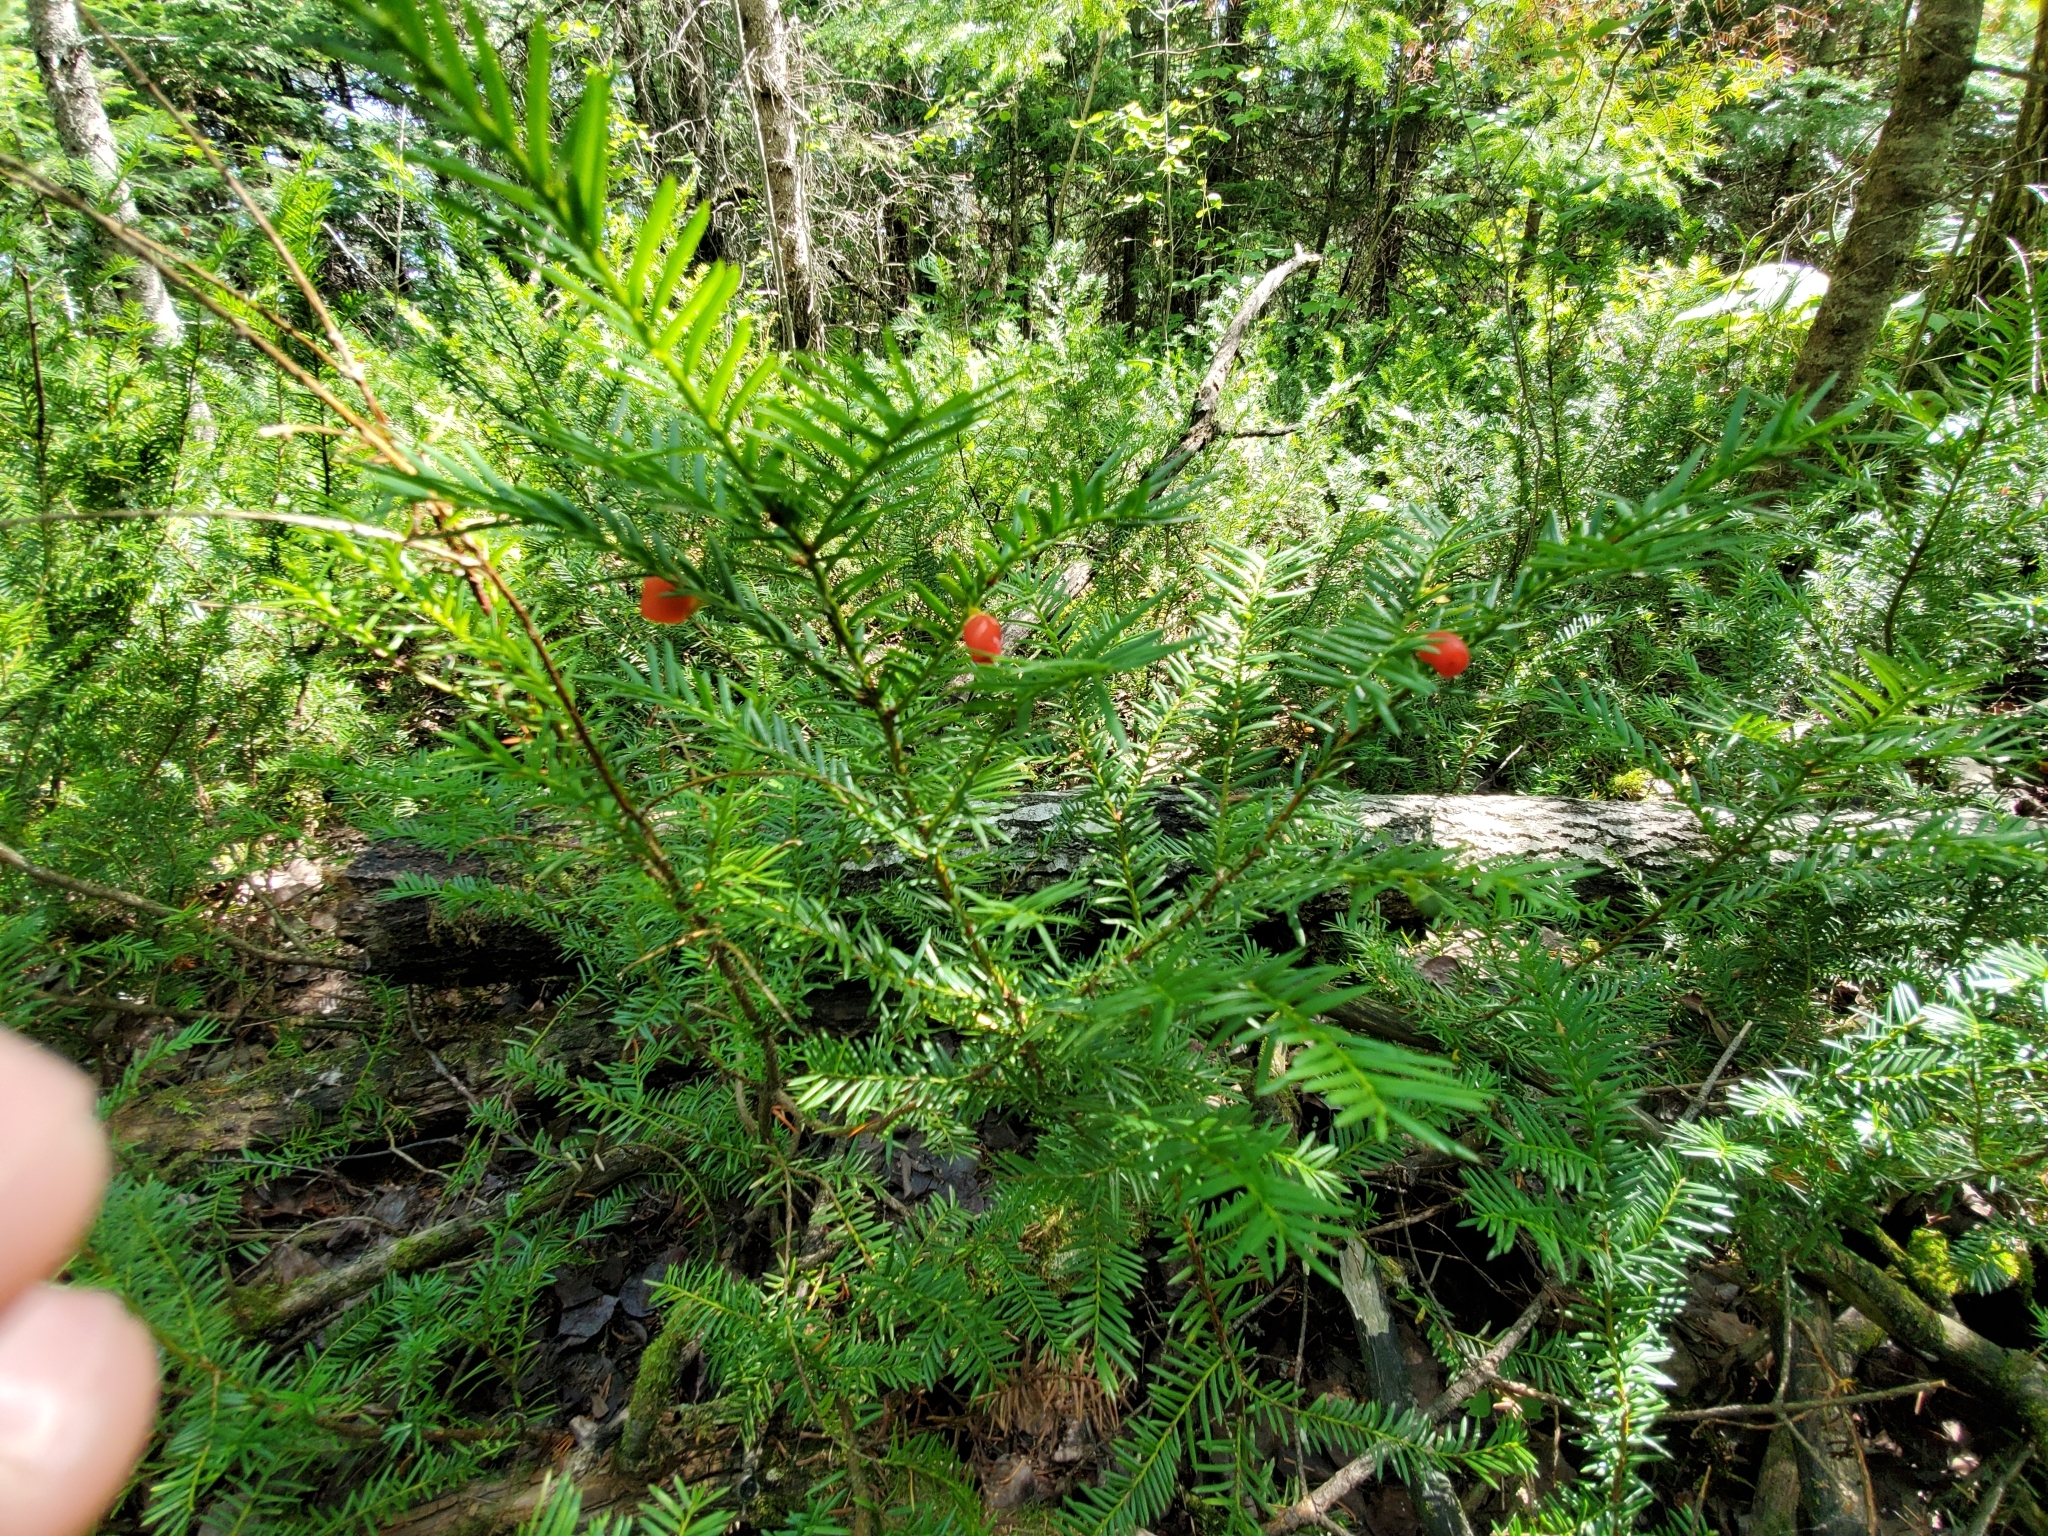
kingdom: Plantae
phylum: Tracheophyta
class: Pinopsida
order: Pinales
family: Taxaceae
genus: Taxus
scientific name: Taxus canadensis
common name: American yew
